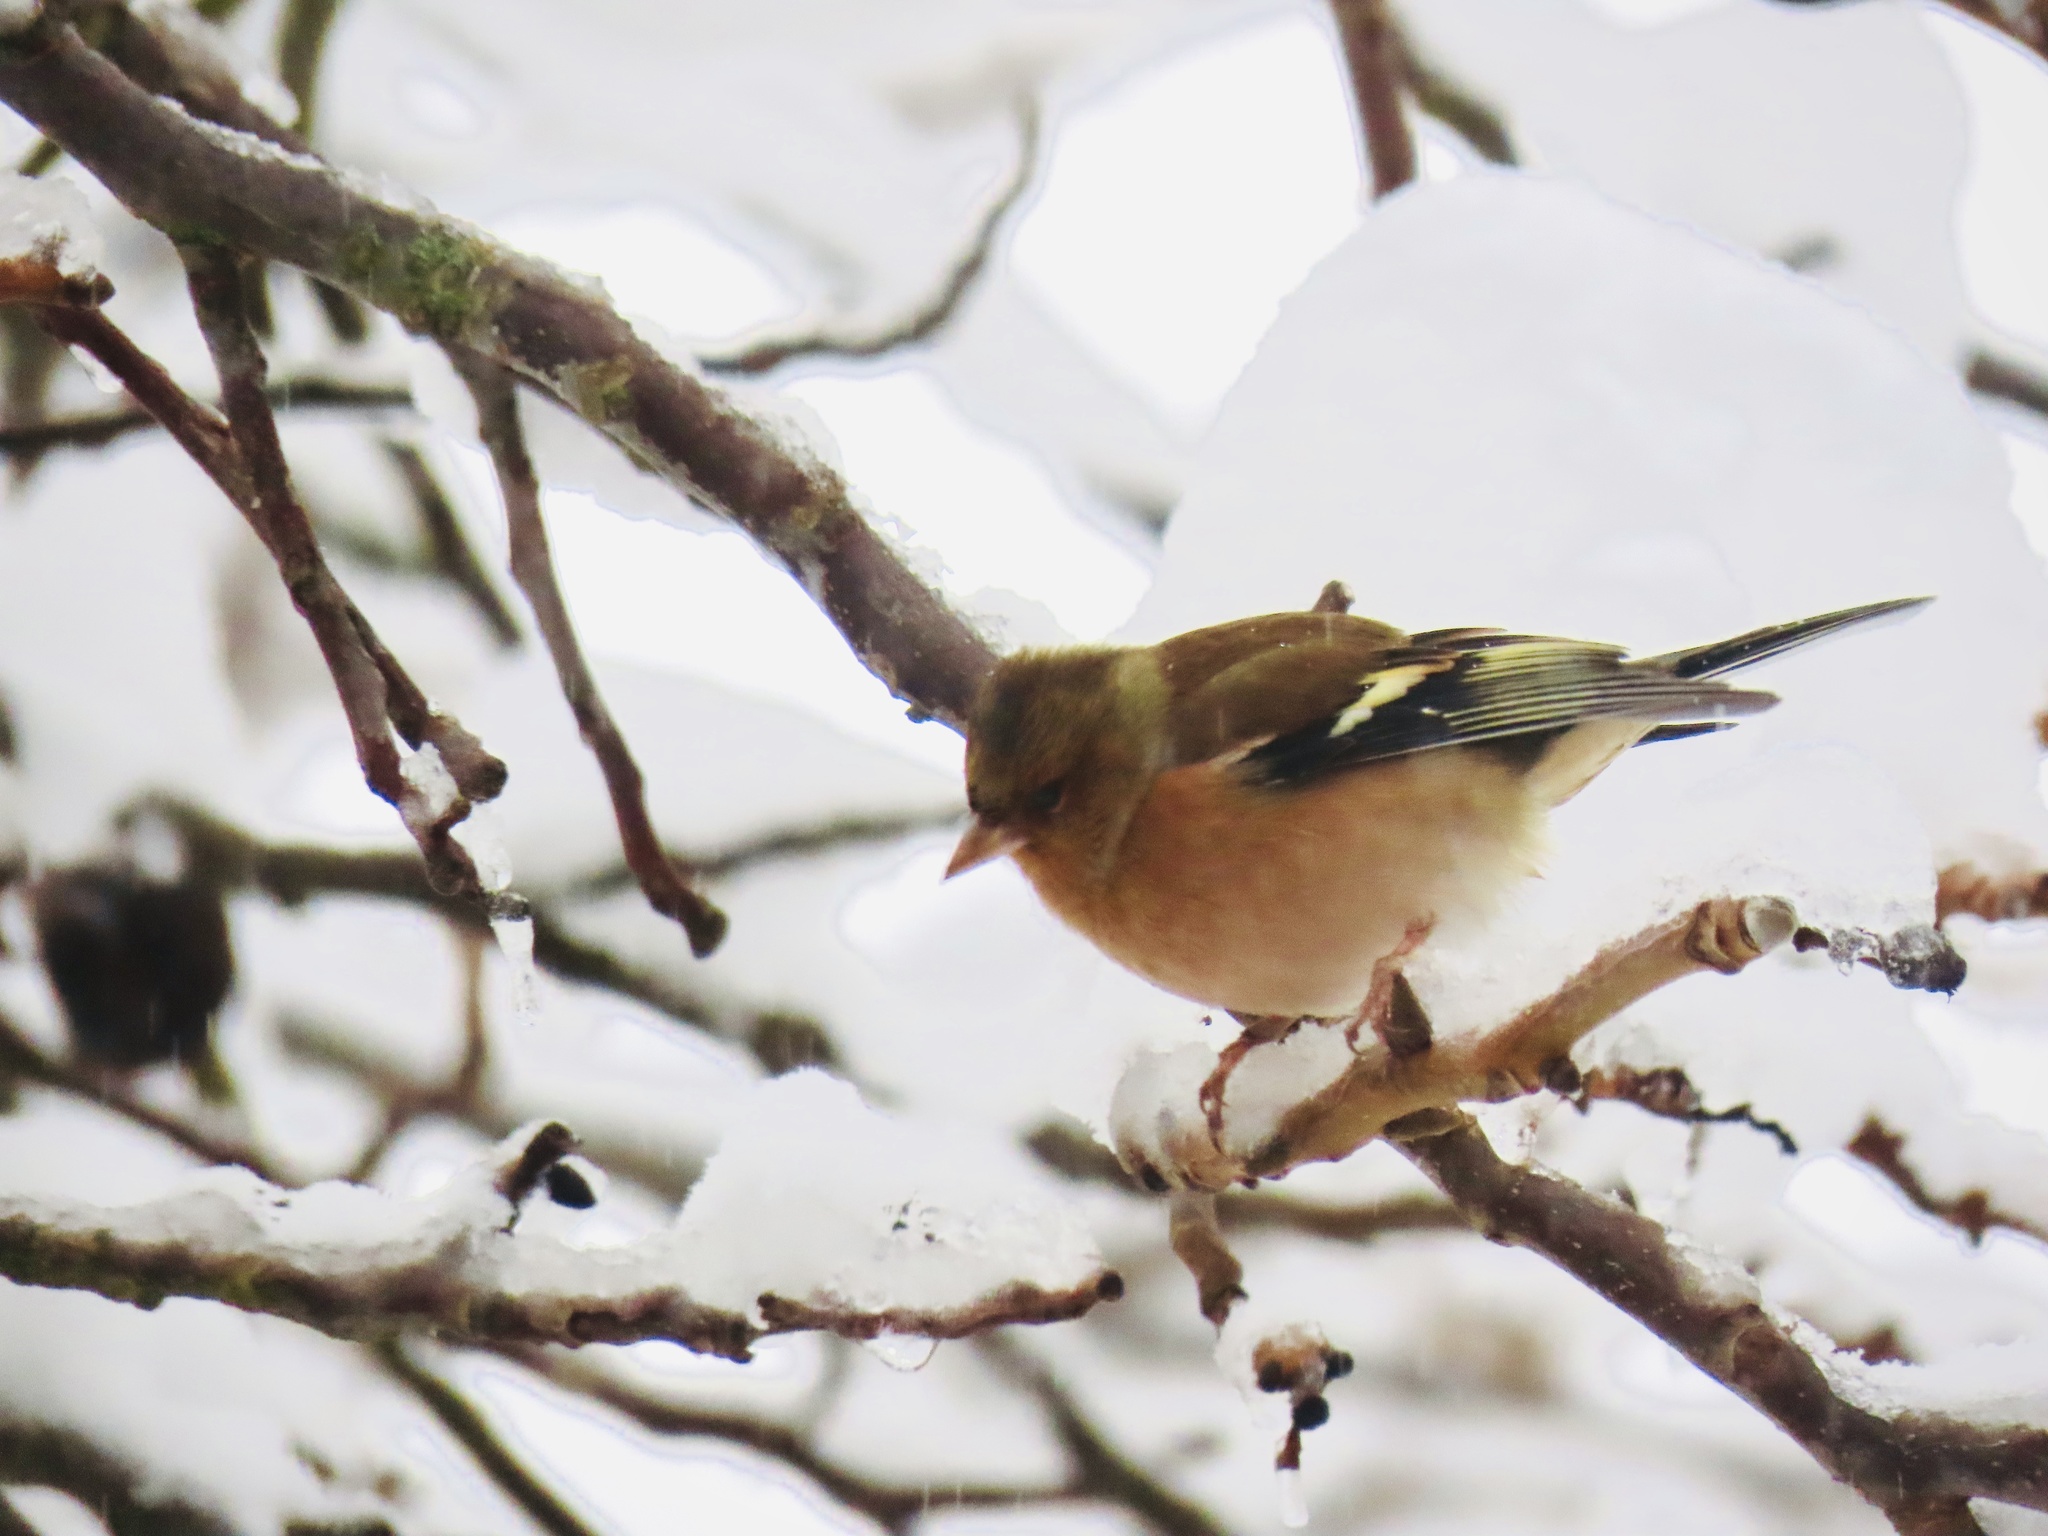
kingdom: Animalia
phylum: Chordata
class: Aves
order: Passeriformes
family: Fringillidae
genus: Fringilla
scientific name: Fringilla coelebs
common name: Common chaffinch
